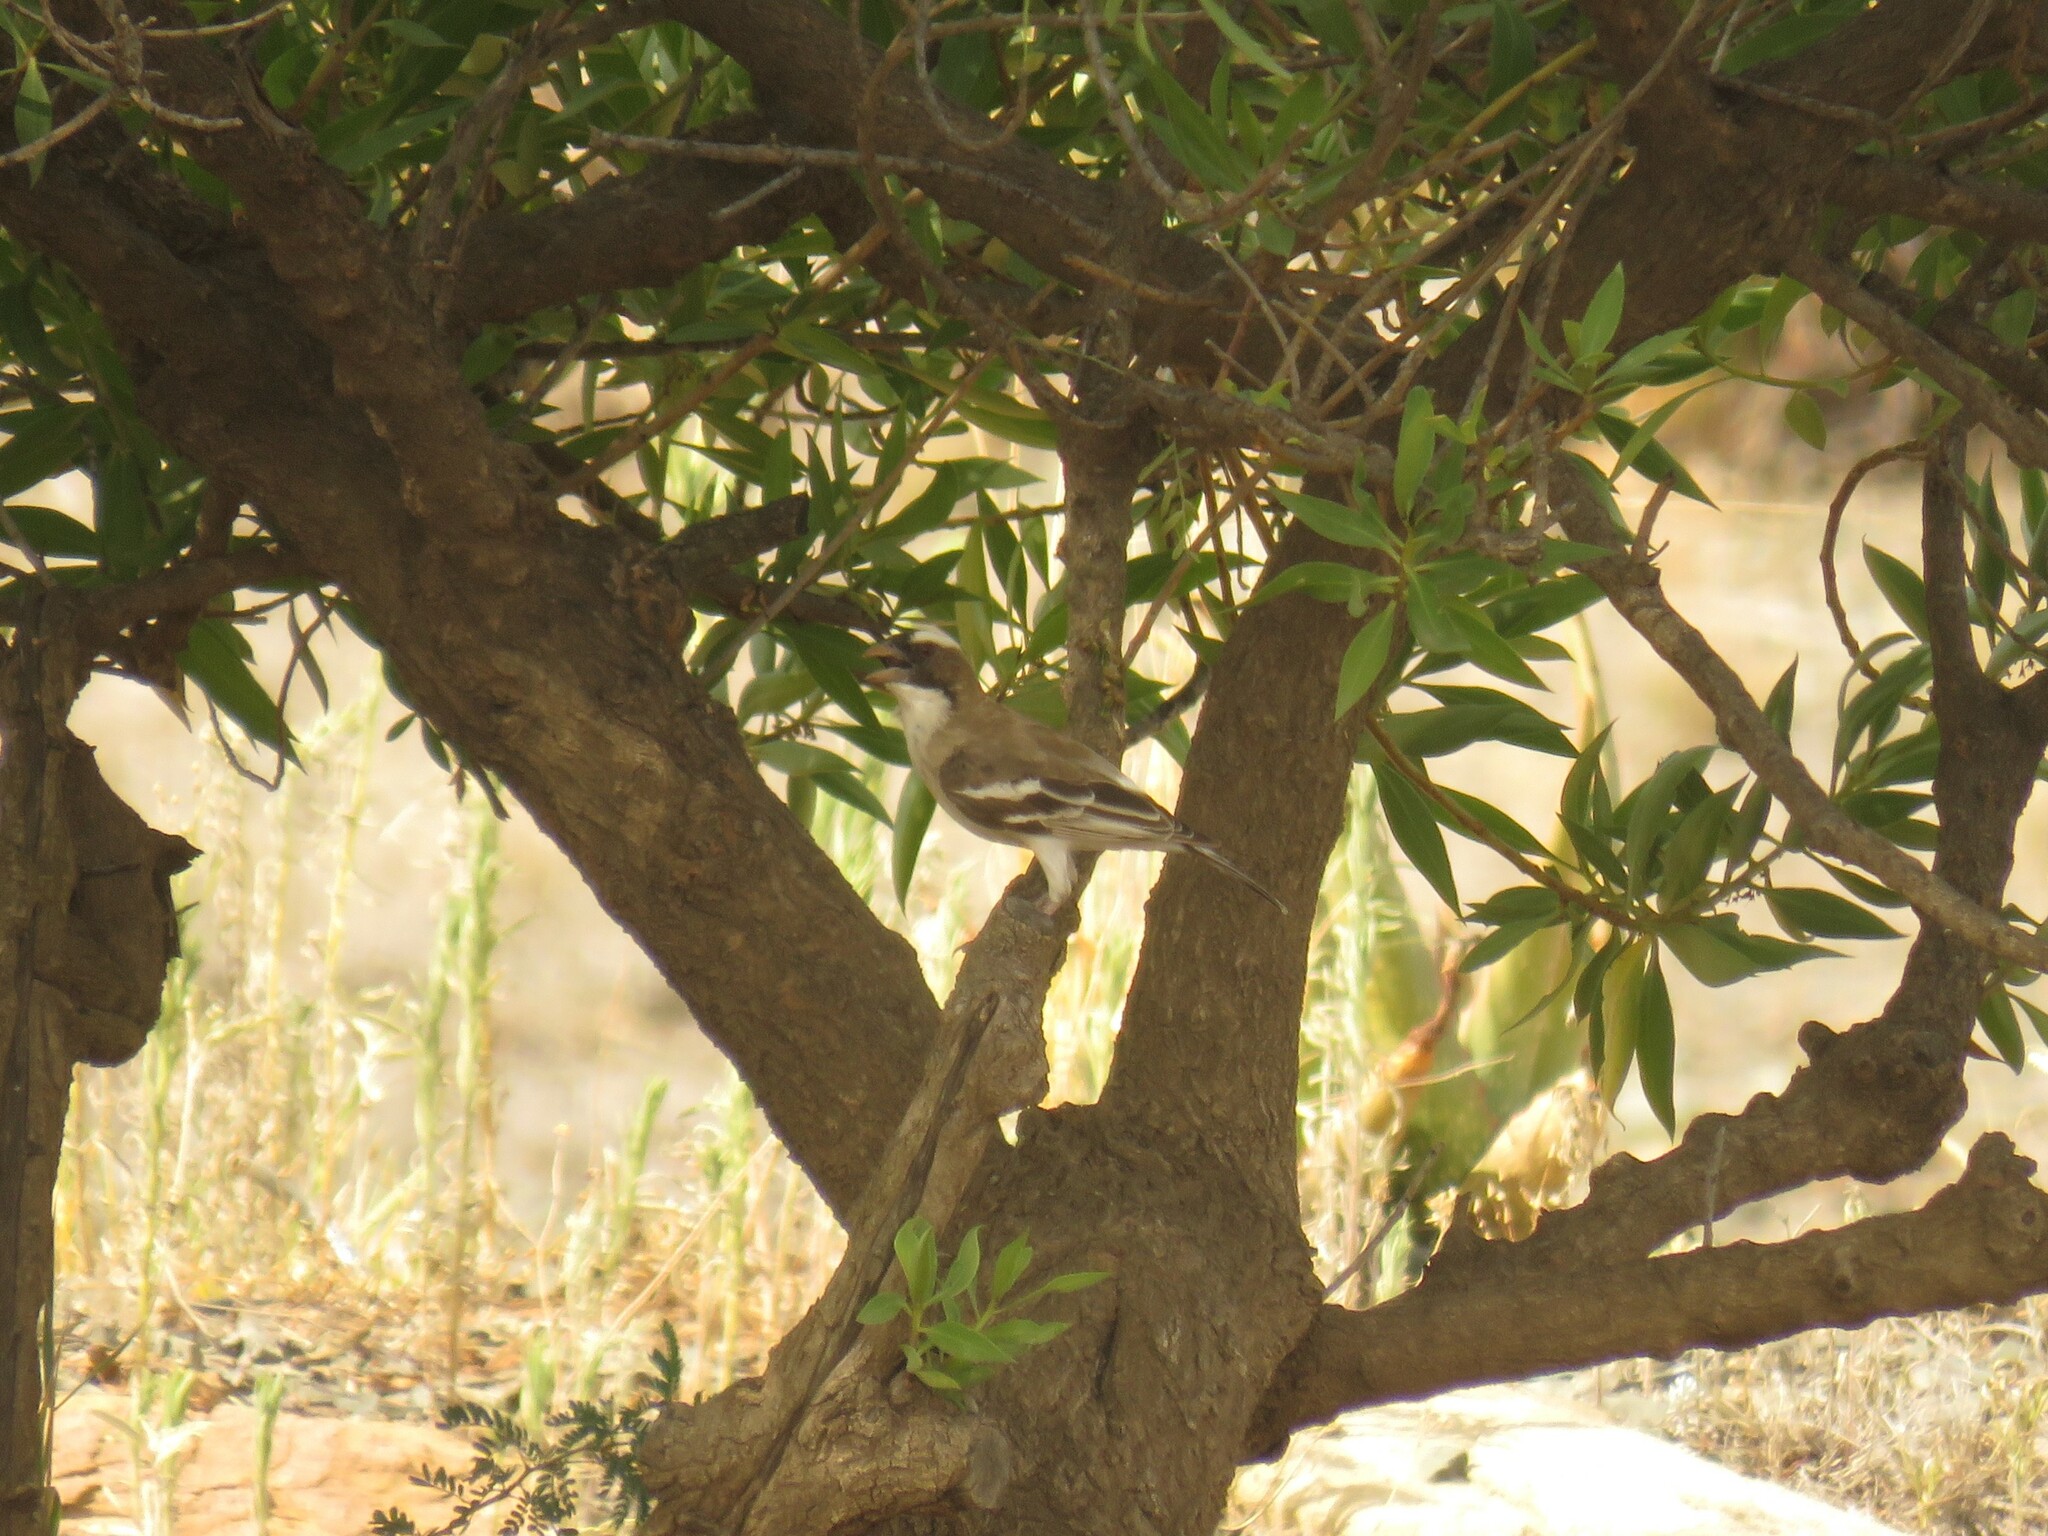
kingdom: Animalia
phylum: Chordata
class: Aves
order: Passeriformes
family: Passeridae
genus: Plocepasser
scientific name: Plocepasser mahali
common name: White-browed sparrow-weaver
